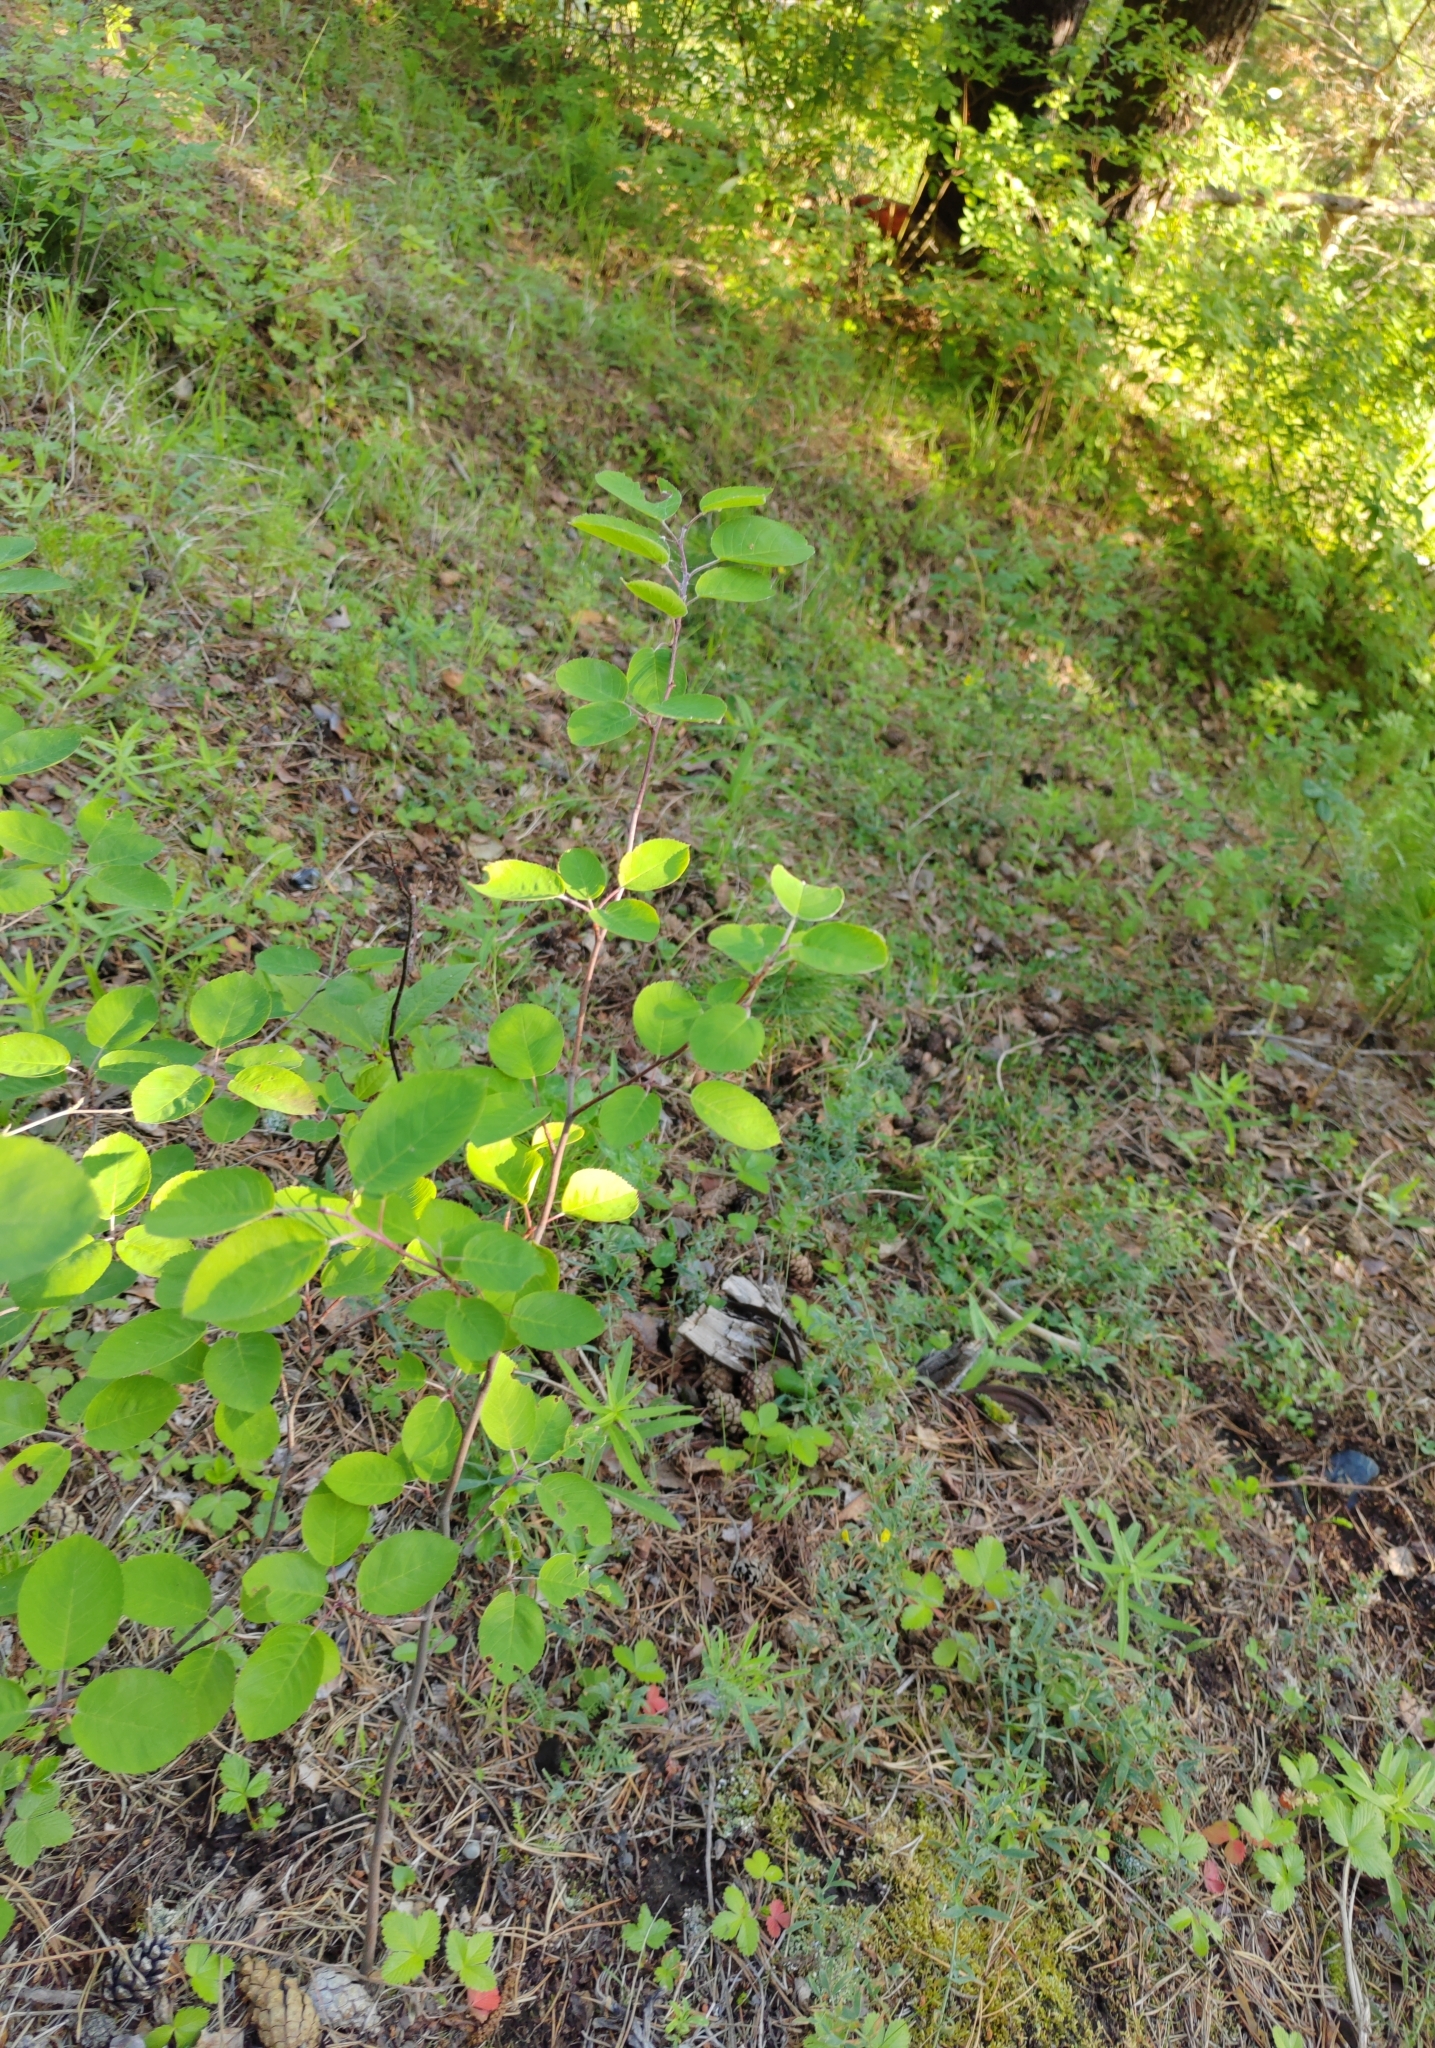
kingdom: Plantae
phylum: Tracheophyta
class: Magnoliopsida
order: Rosales
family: Rosaceae
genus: Amelanchier
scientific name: Amelanchier
